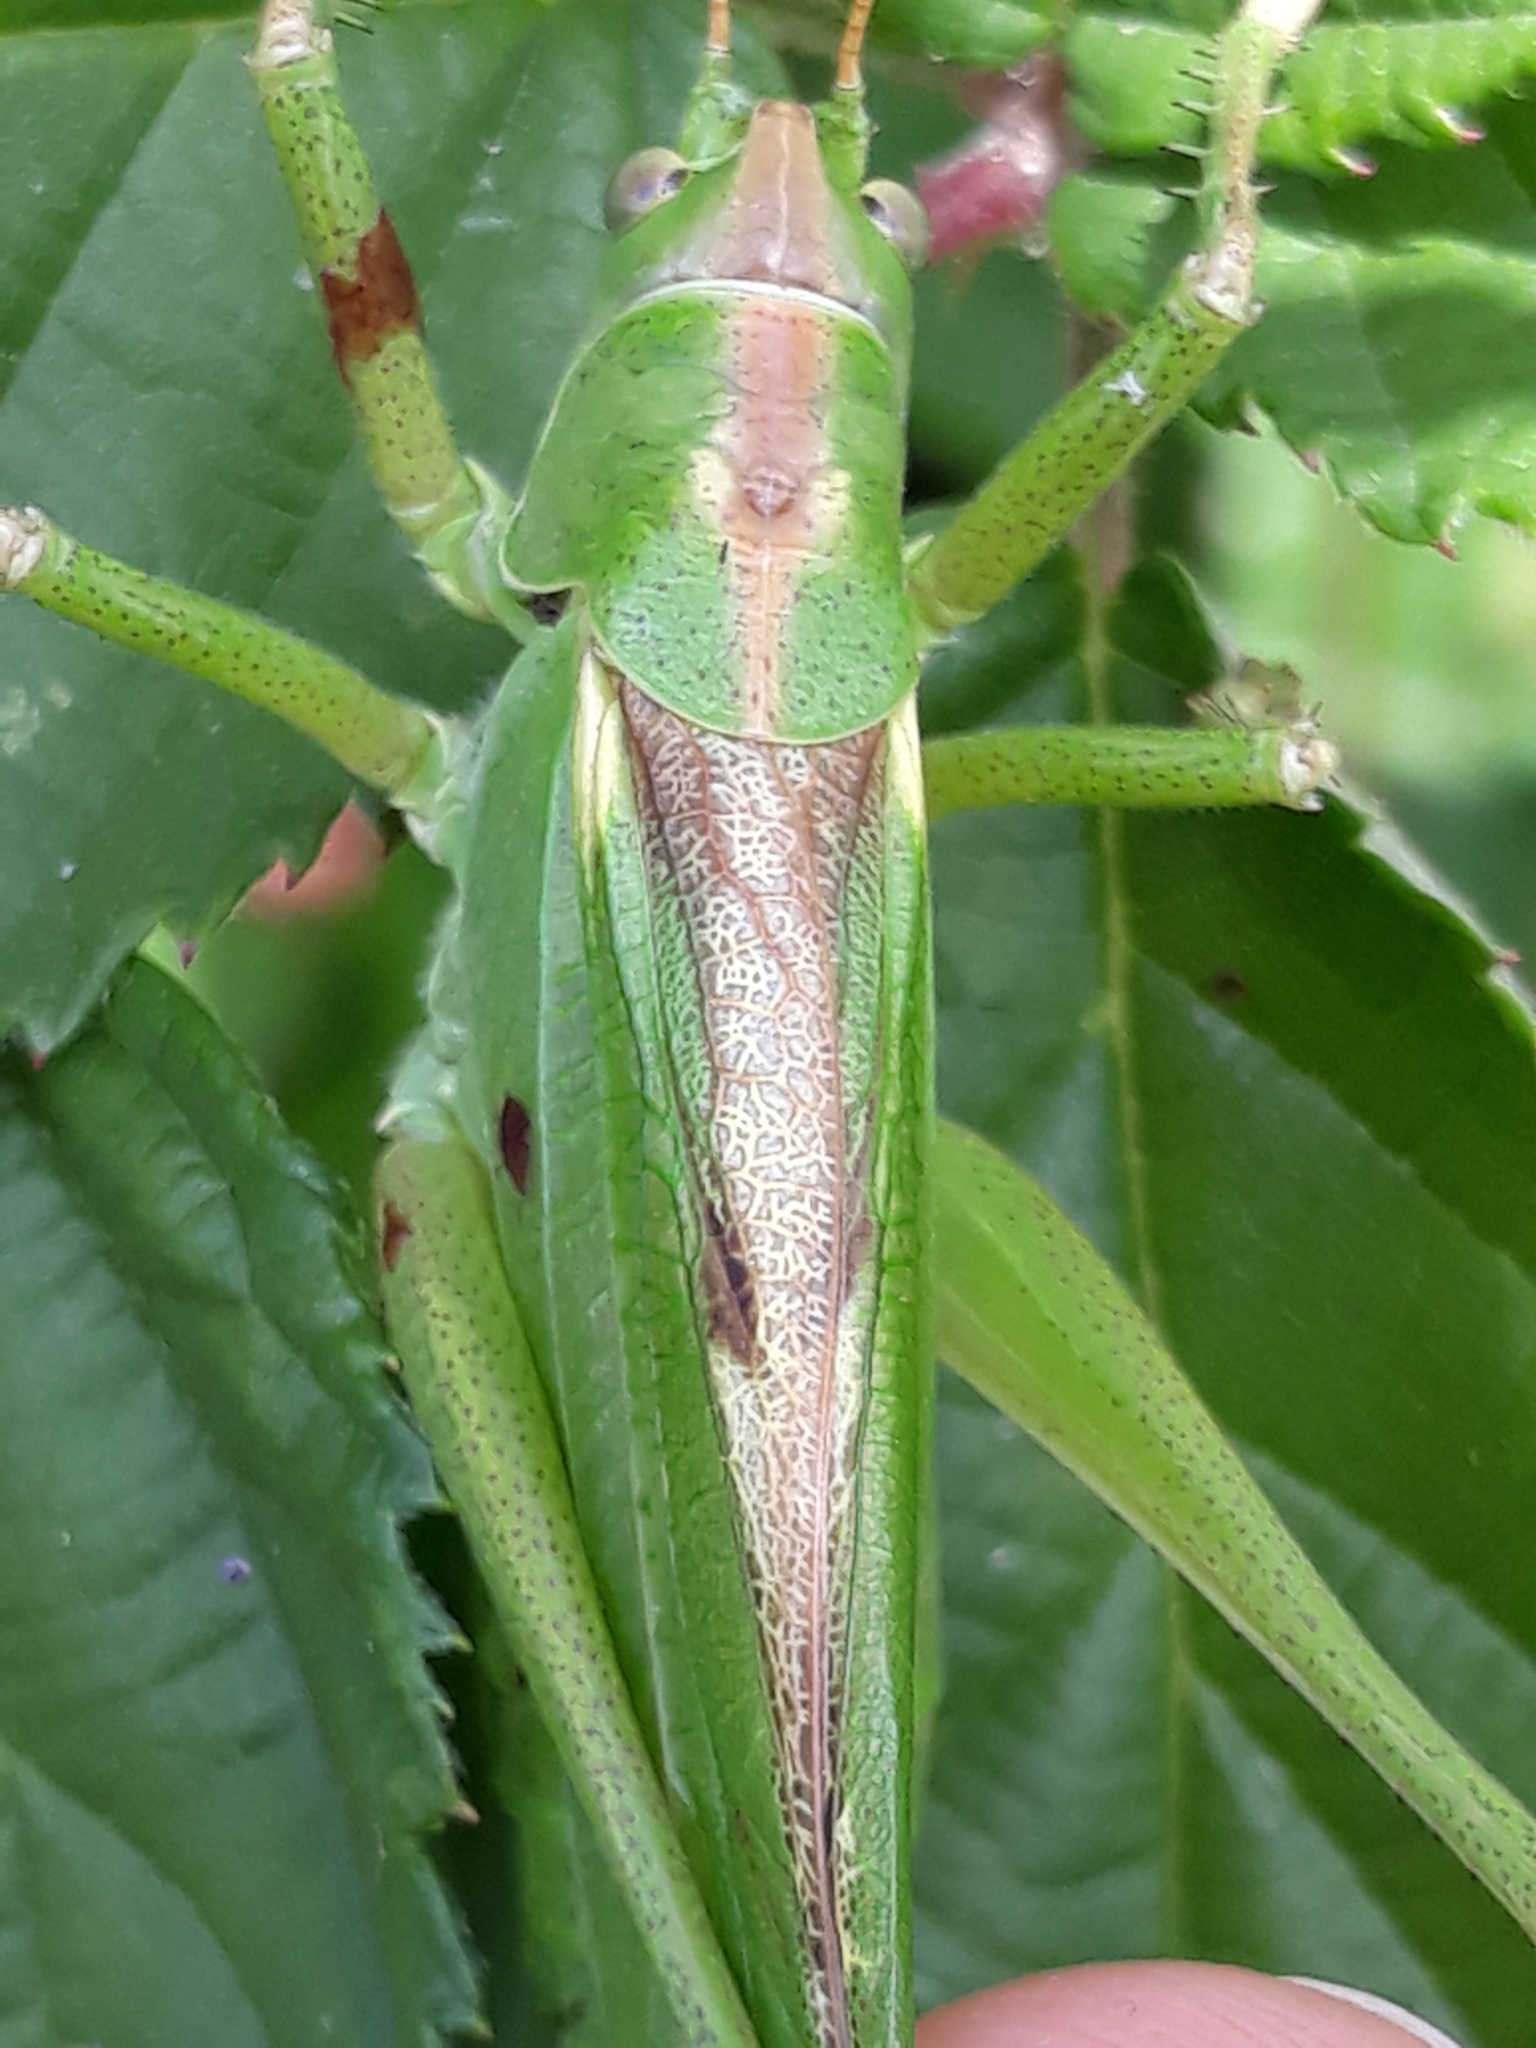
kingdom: Animalia
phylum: Arthropoda
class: Insecta
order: Orthoptera
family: Tettigoniidae
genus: Tettigonia
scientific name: Tettigonia viridissima
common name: Great green bush-cricket
